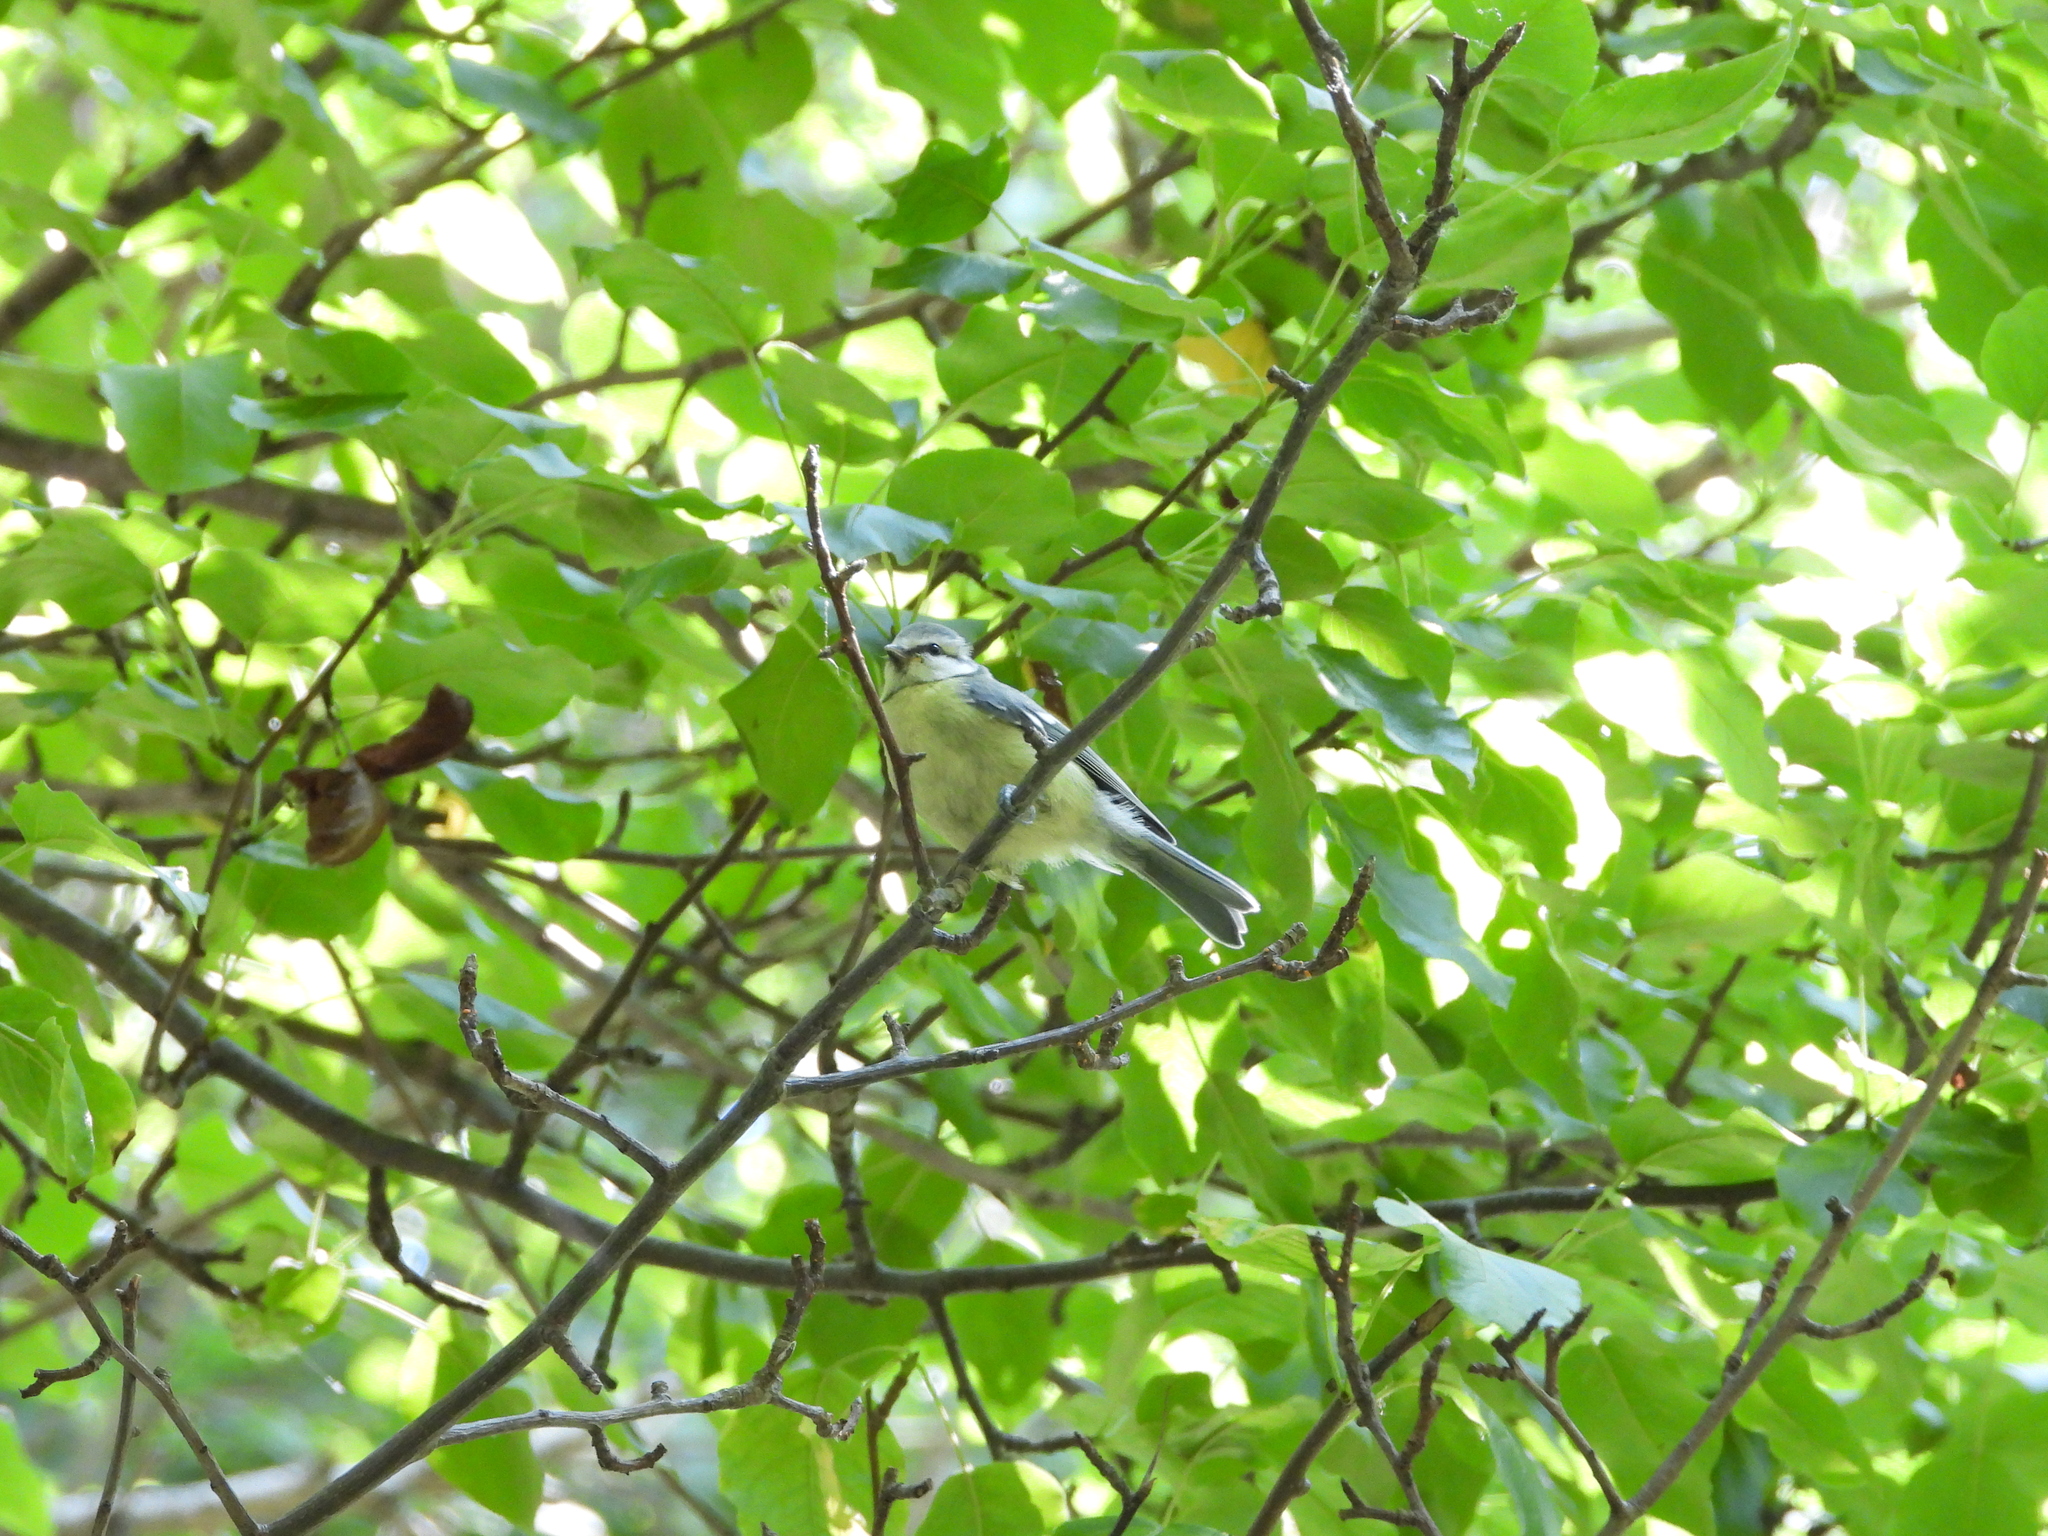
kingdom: Animalia
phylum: Chordata
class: Aves
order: Passeriformes
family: Paridae
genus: Cyanistes
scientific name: Cyanistes caeruleus
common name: Eurasian blue tit
